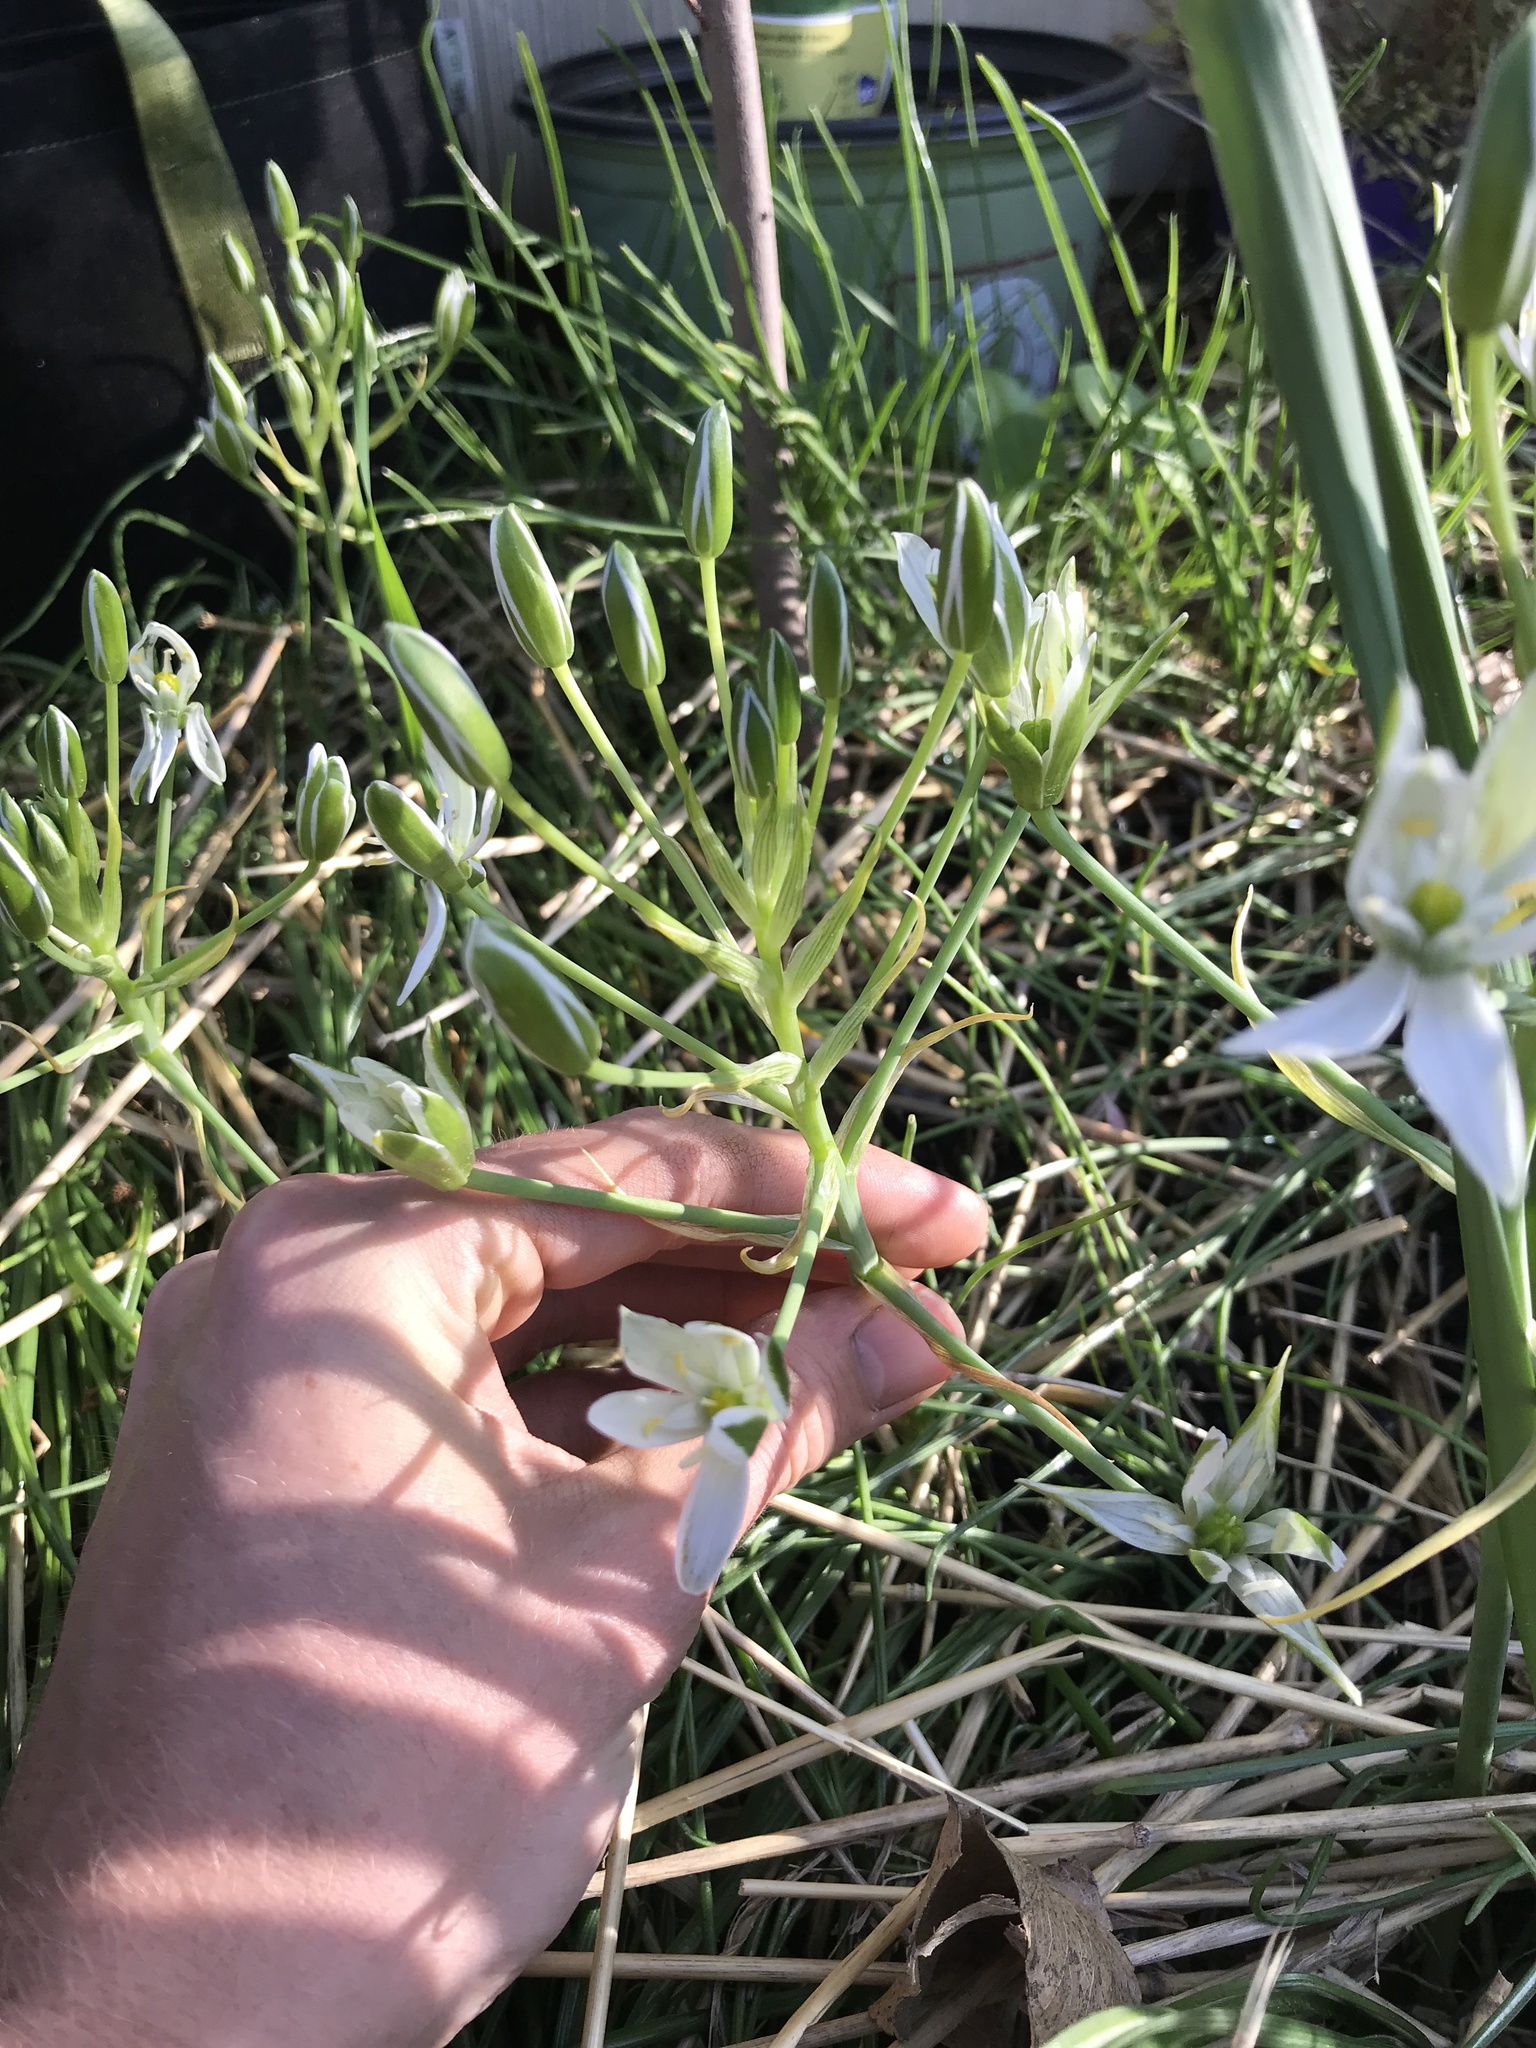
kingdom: Plantae
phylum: Tracheophyta
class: Liliopsida
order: Asparagales
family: Asparagaceae
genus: Ornithogalum
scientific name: Ornithogalum umbellatum
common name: Garden star-of-bethlehem
